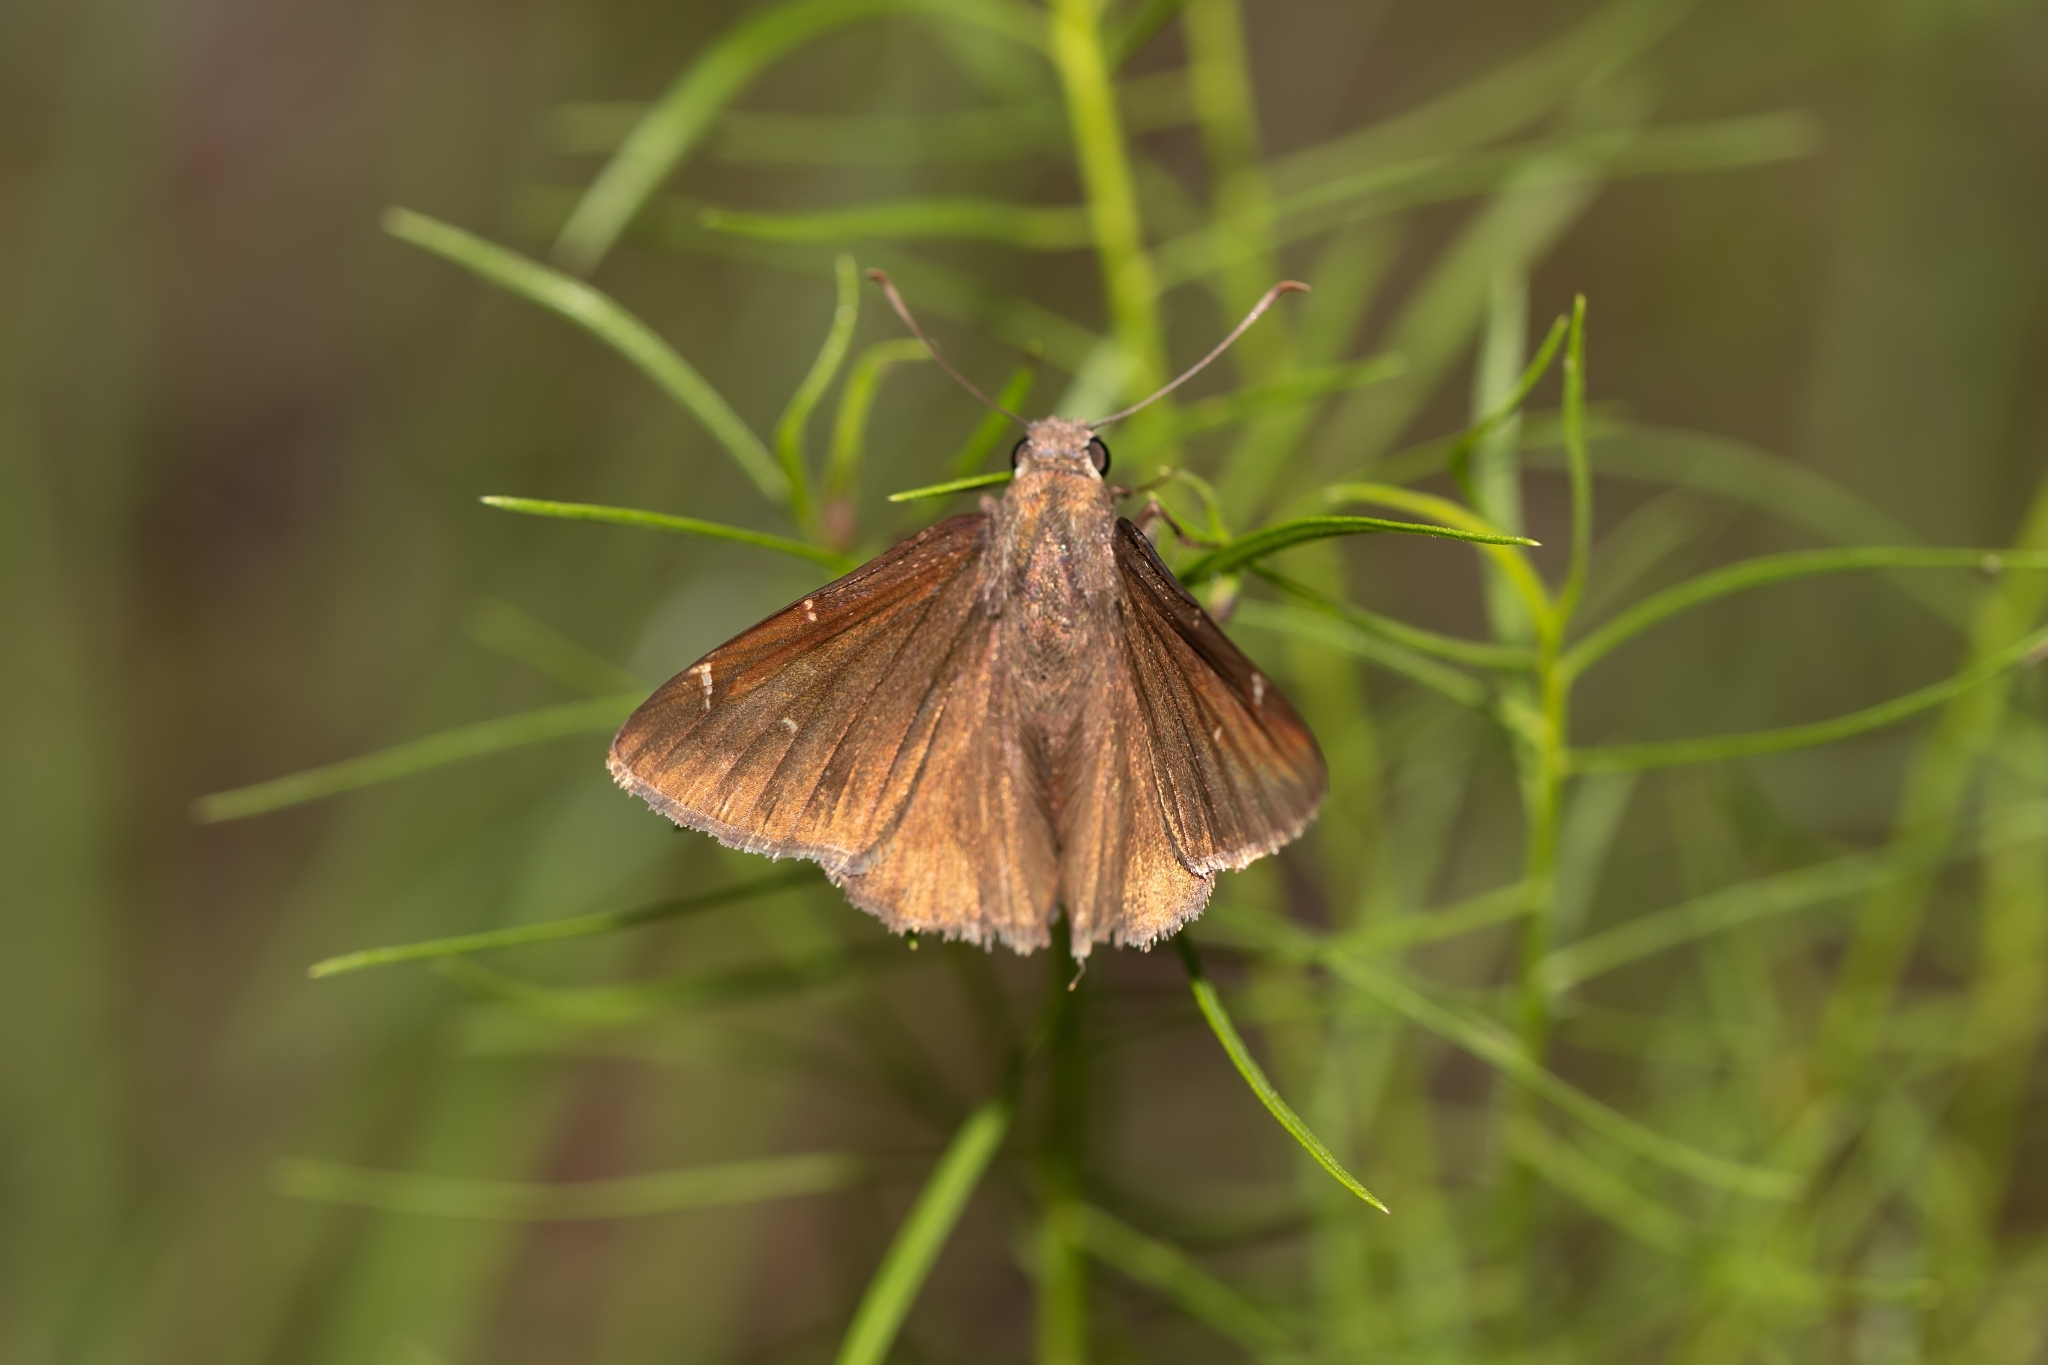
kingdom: Animalia
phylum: Arthropoda
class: Insecta
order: Lepidoptera
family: Hesperiidae
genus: Thorybes
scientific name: Thorybes mexicana
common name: Mexican cloudywing
